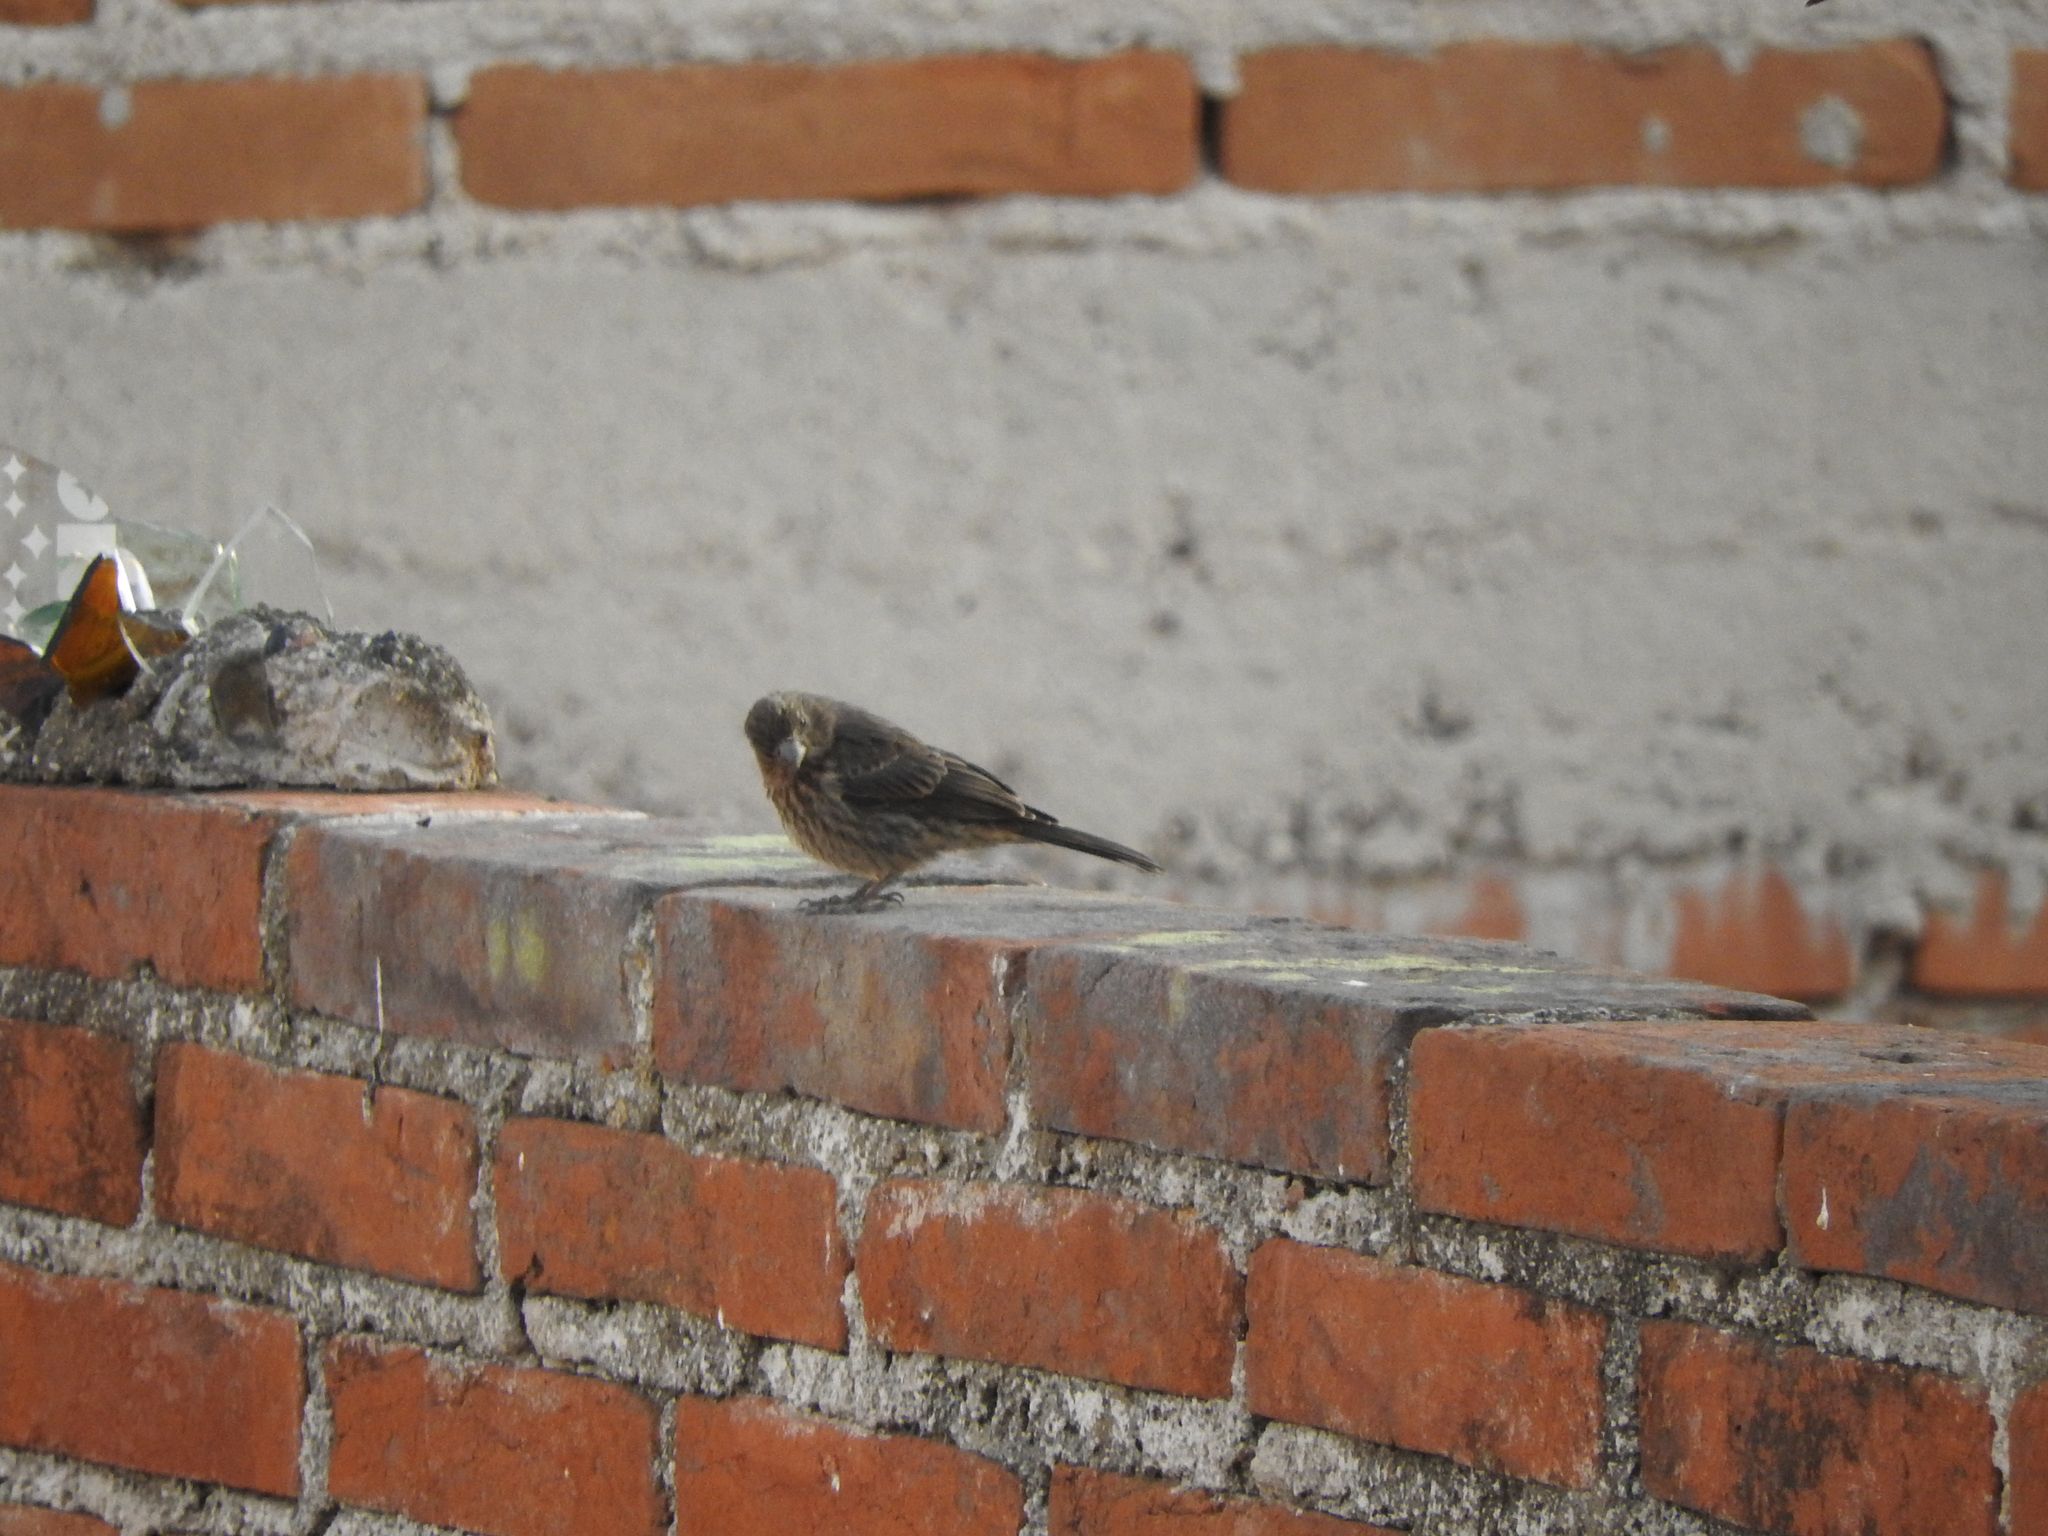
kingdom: Animalia
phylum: Chordata
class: Aves
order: Passeriformes
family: Fringillidae
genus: Haemorhous
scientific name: Haemorhous mexicanus
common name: House finch
